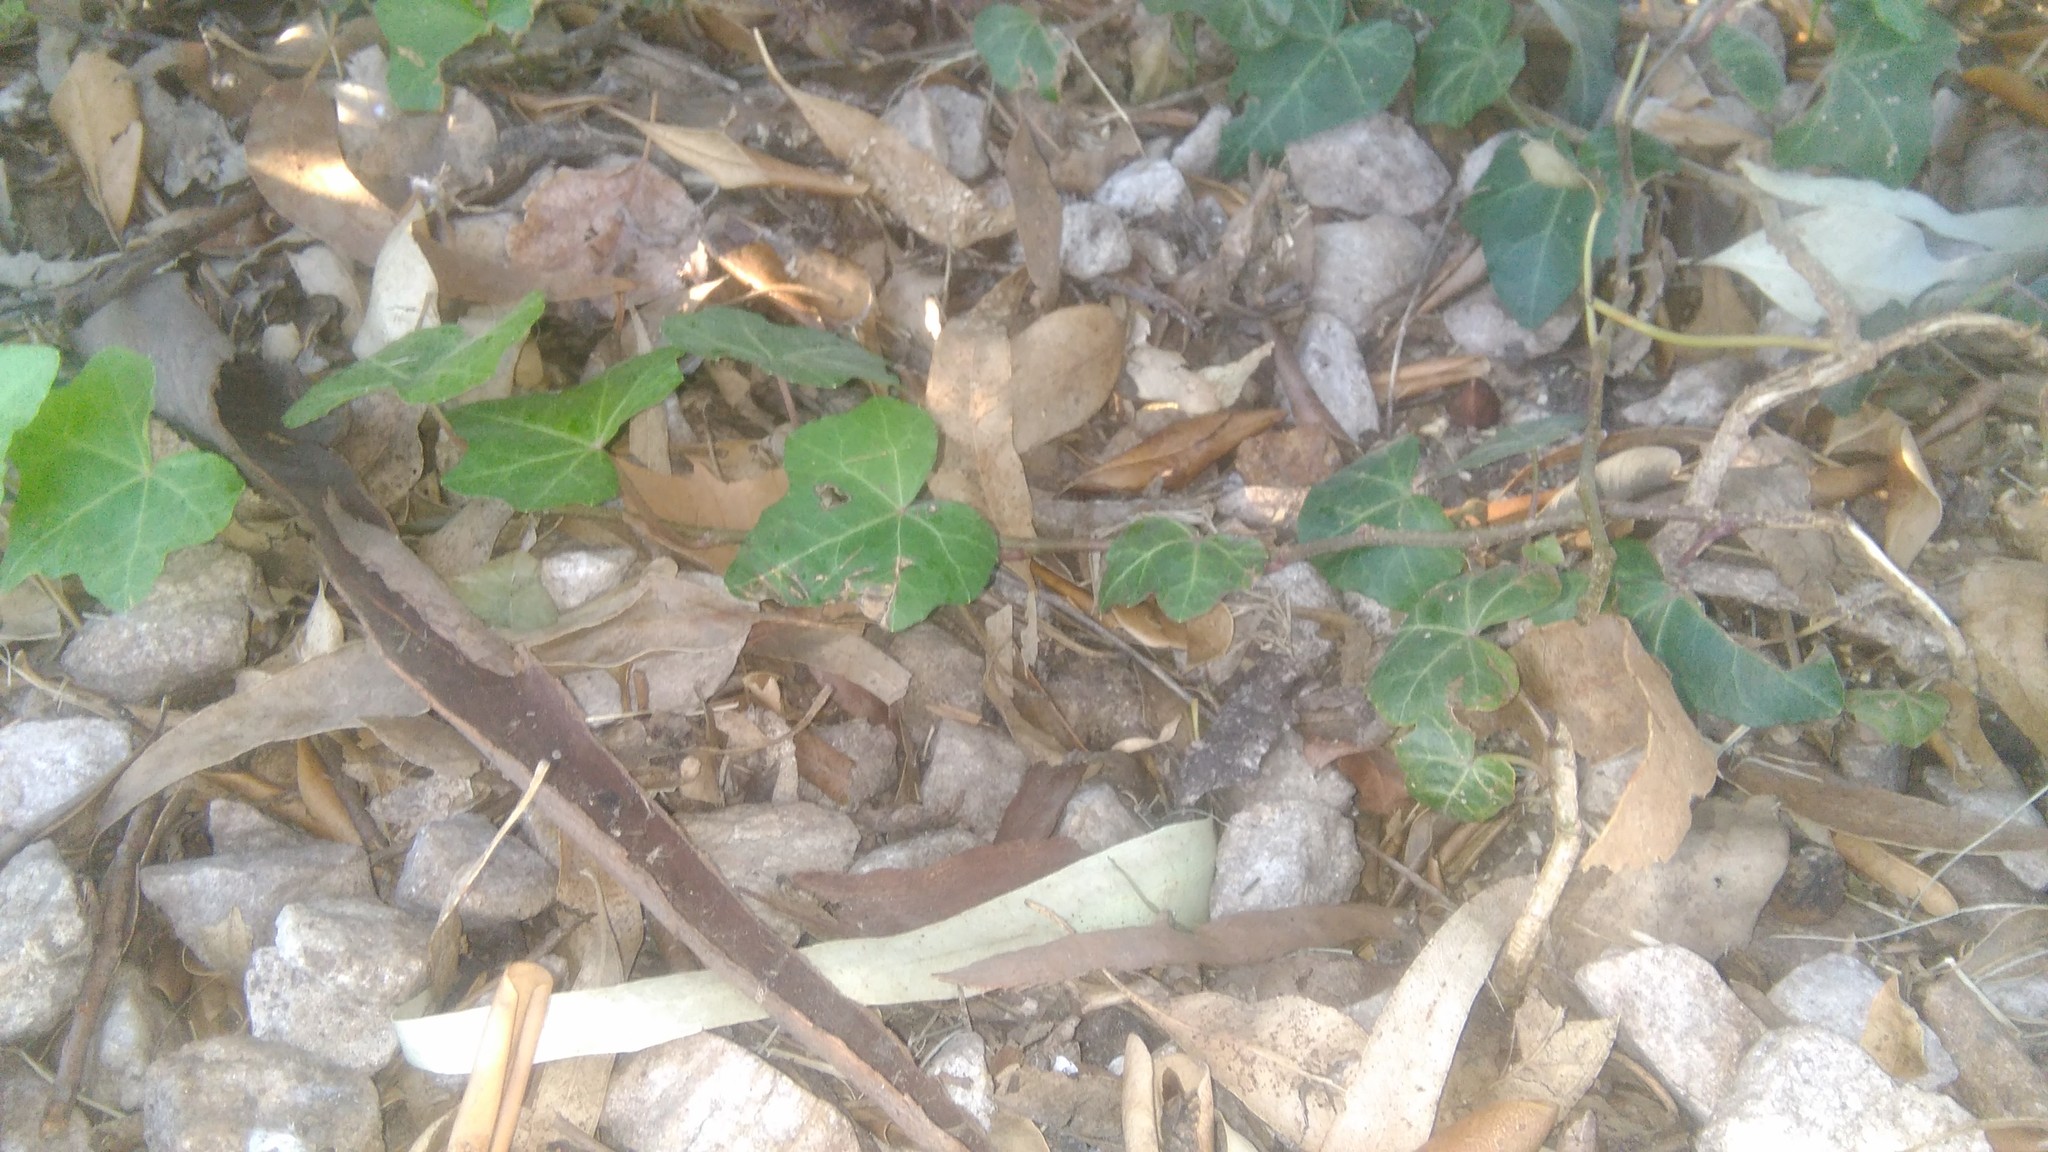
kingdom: Plantae
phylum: Tracheophyta
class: Magnoliopsida
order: Apiales
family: Araliaceae
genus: Hedera
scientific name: Hedera helix
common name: Ivy
